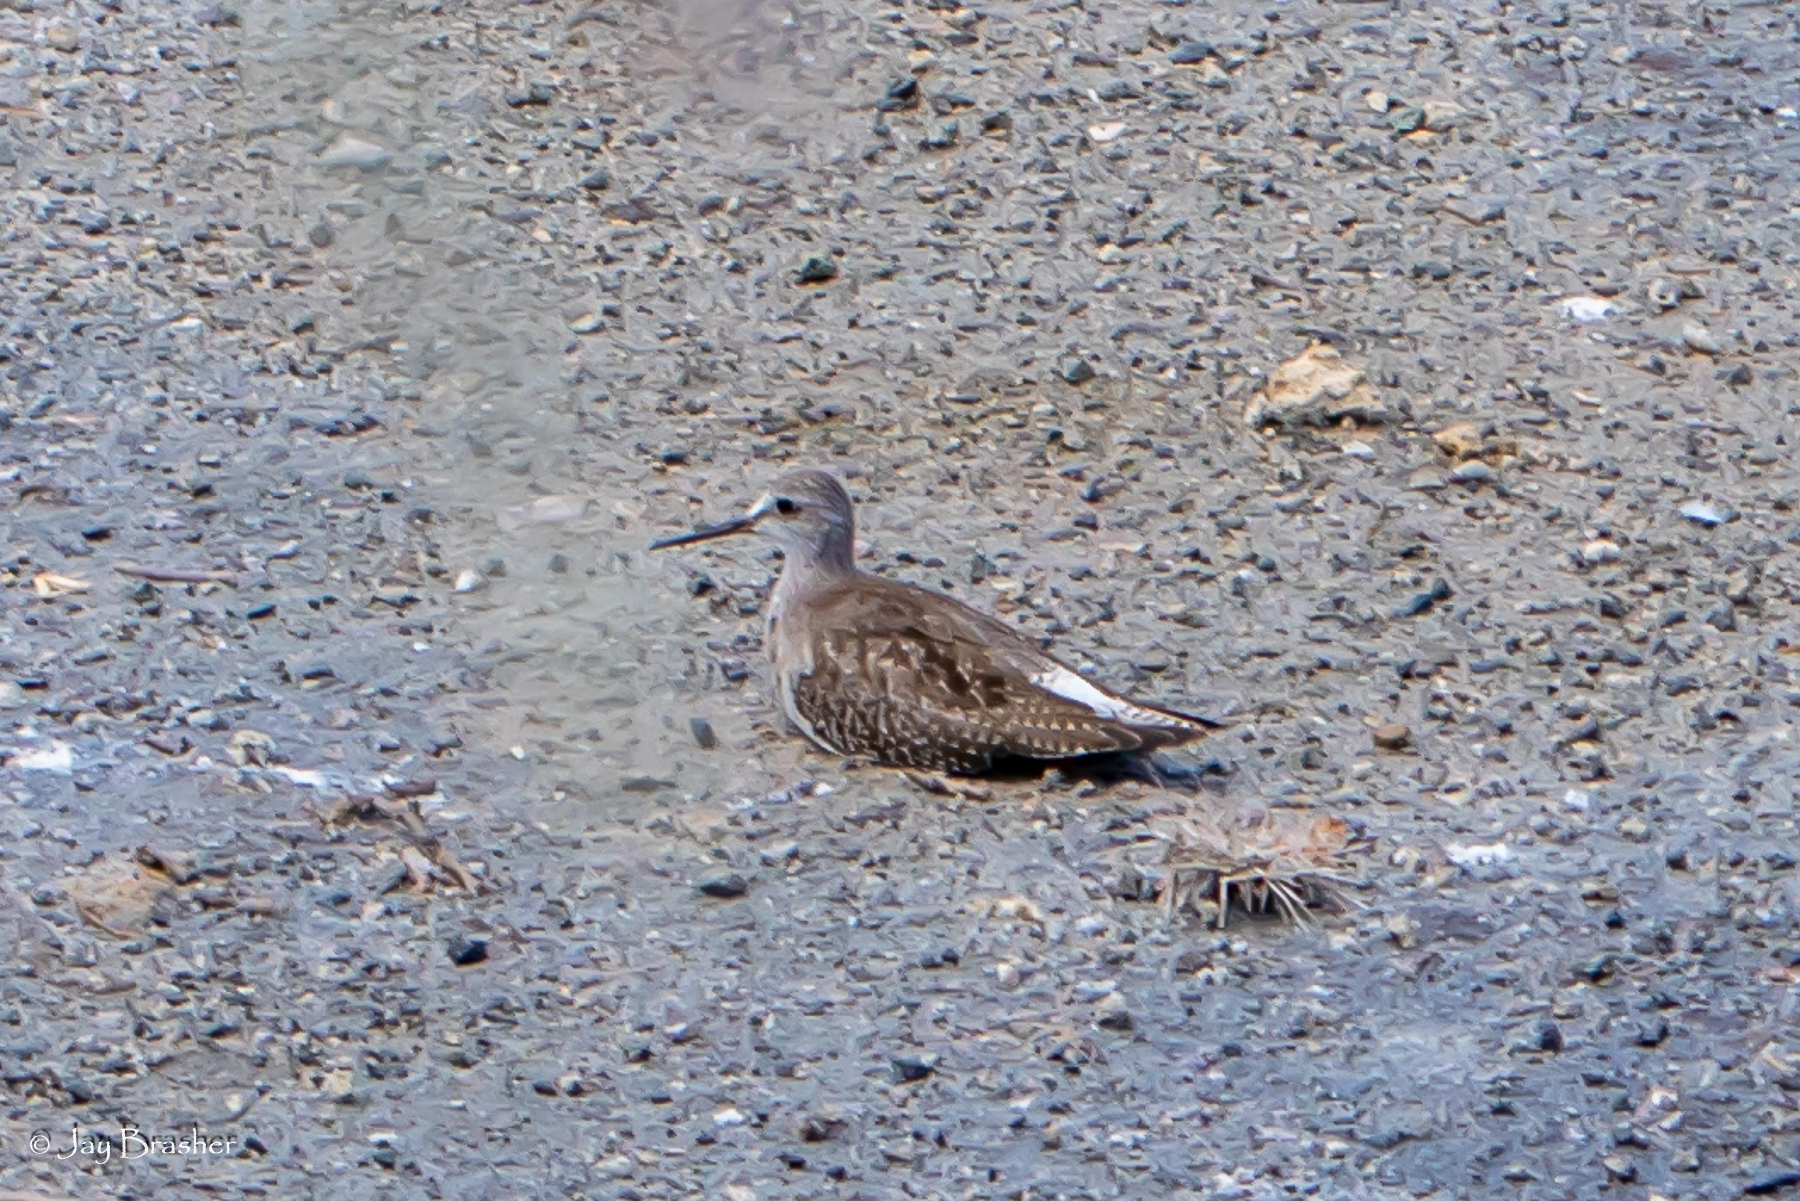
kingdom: Animalia
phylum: Chordata
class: Aves
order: Charadriiformes
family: Scolopacidae
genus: Tringa
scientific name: Tringa flavipes
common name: Lesser yellowlegs
